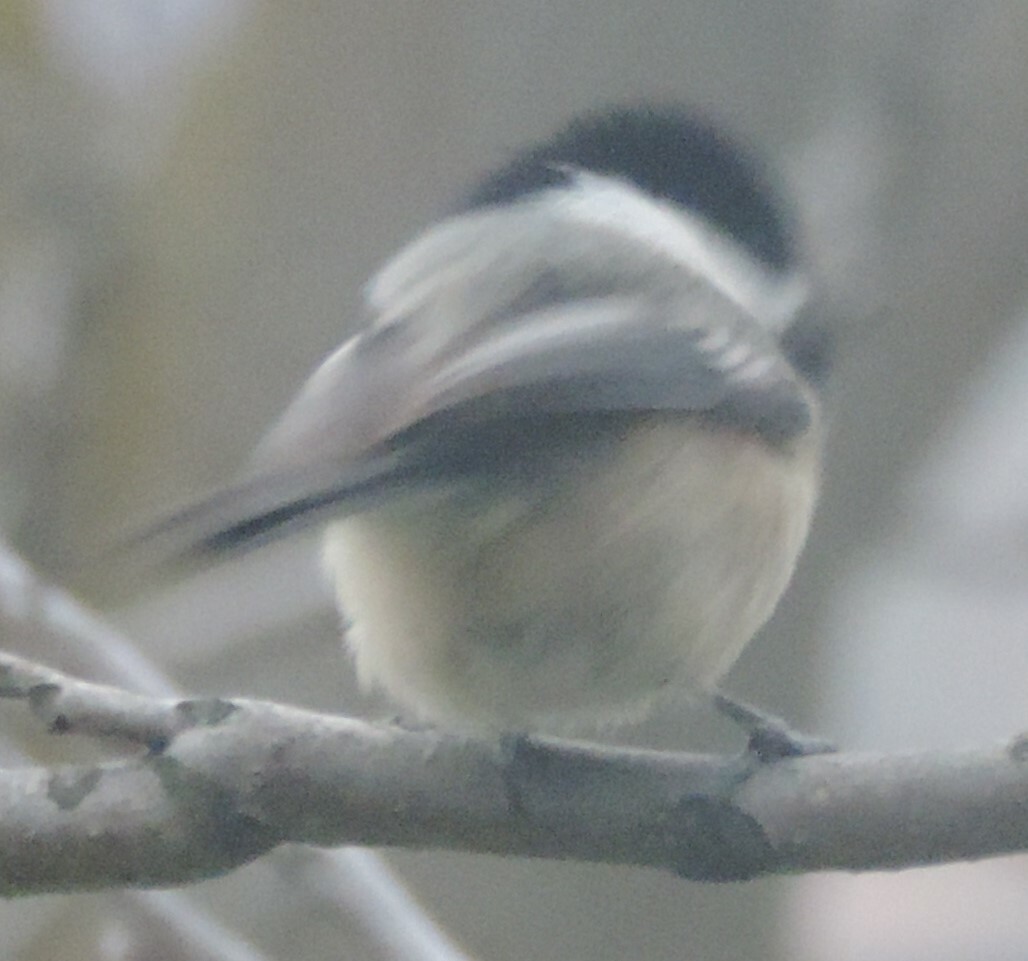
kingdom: Animalia
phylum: Chordata
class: Aves
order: Passeriformes
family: Paridae
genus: Poecile
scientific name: Poecile atricapillus
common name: Black-capped chickadee
